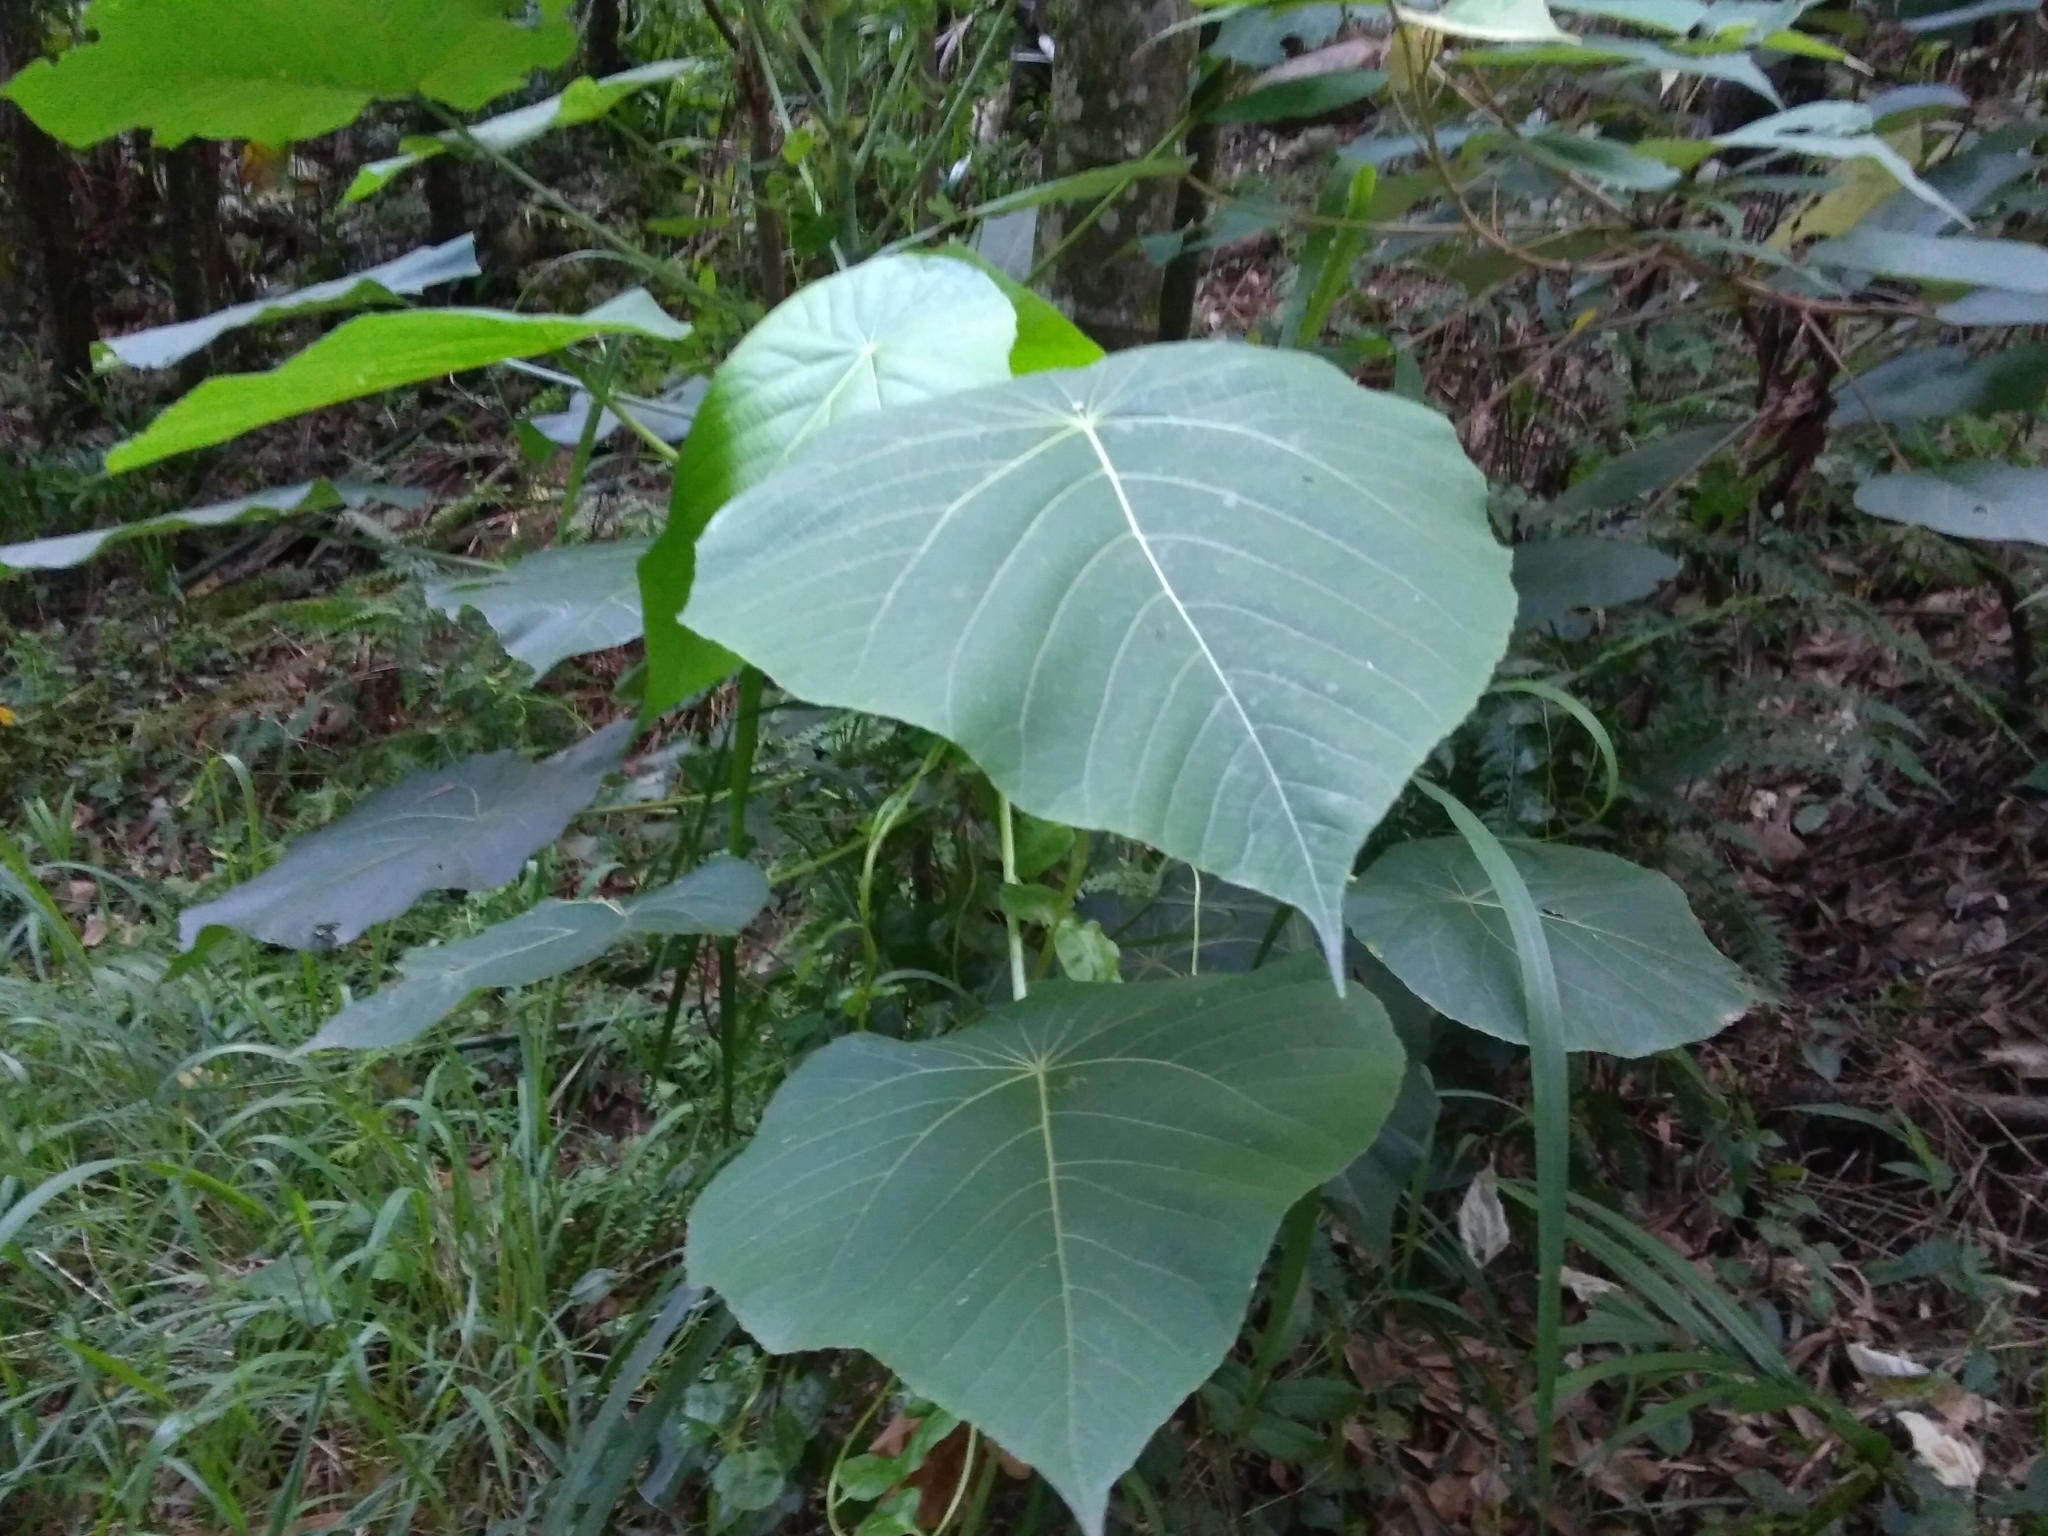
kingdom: Plantae
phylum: Tracheophyta
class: Magnoliopsida
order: Malpighiales
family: Euphorbiaceae
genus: Macaranga
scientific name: Macaranga tanarius
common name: Parasol leaf tree
